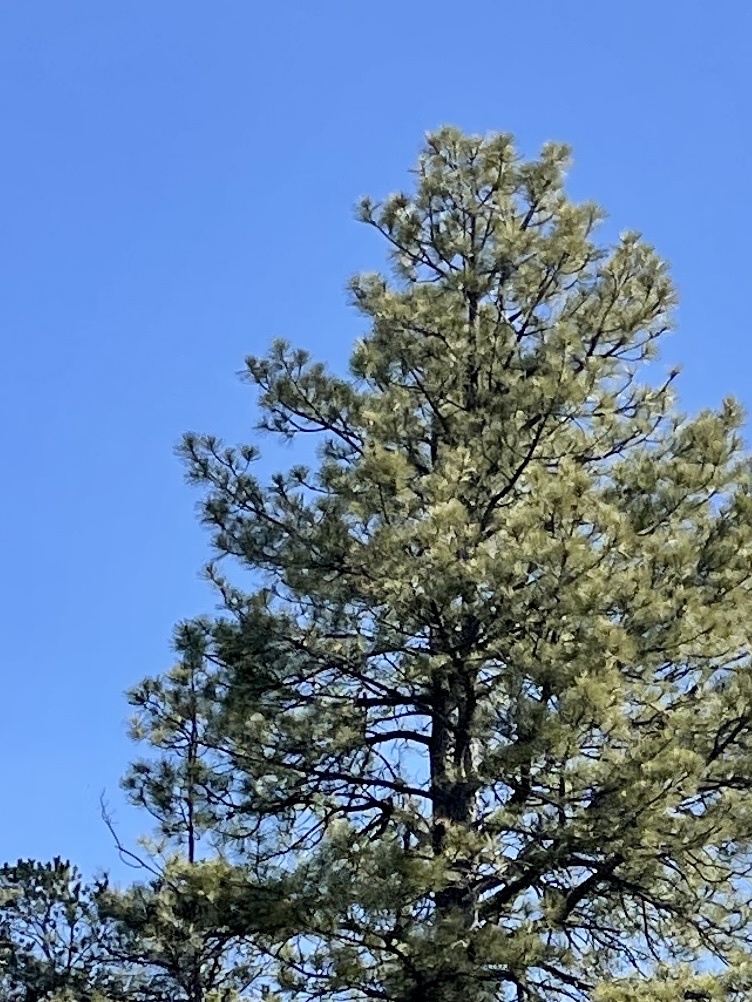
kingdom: Plantae
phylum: Tracheophyta
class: Pinopsida
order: Pinales
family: Pinaceae
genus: Pinus
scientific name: Pinus ponderosa
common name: Western yellow-pine
